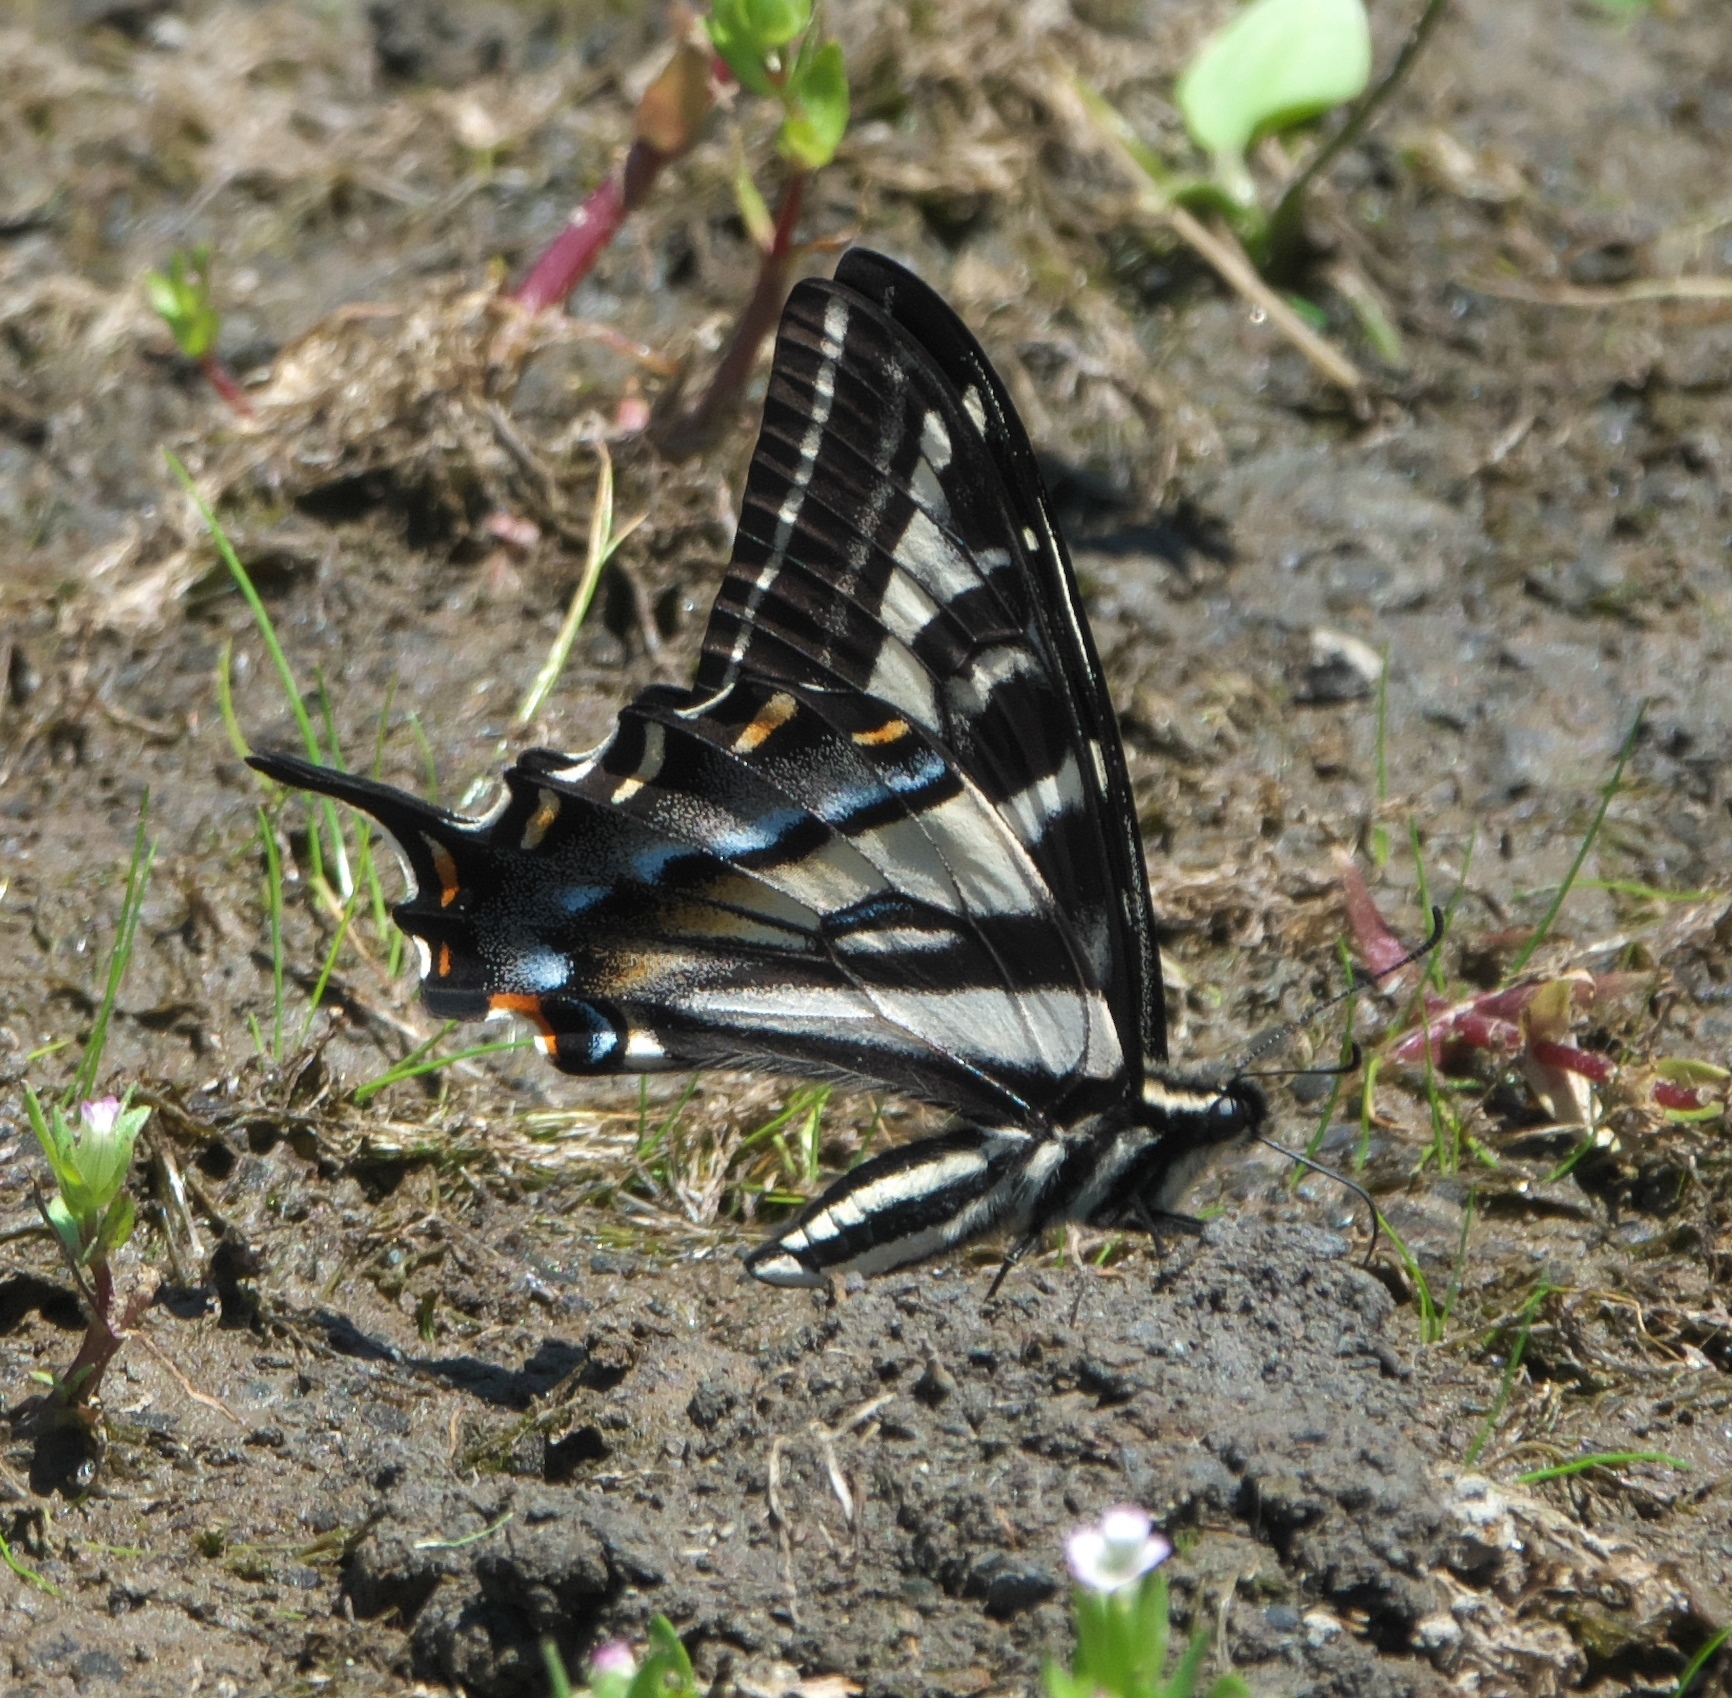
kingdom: Animalia
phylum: Arthropoda
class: Insecta
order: Lepidoptera
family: Papilionidae
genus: Papilio
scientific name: Papilio eurymedon
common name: Pale tiger swallowtail
